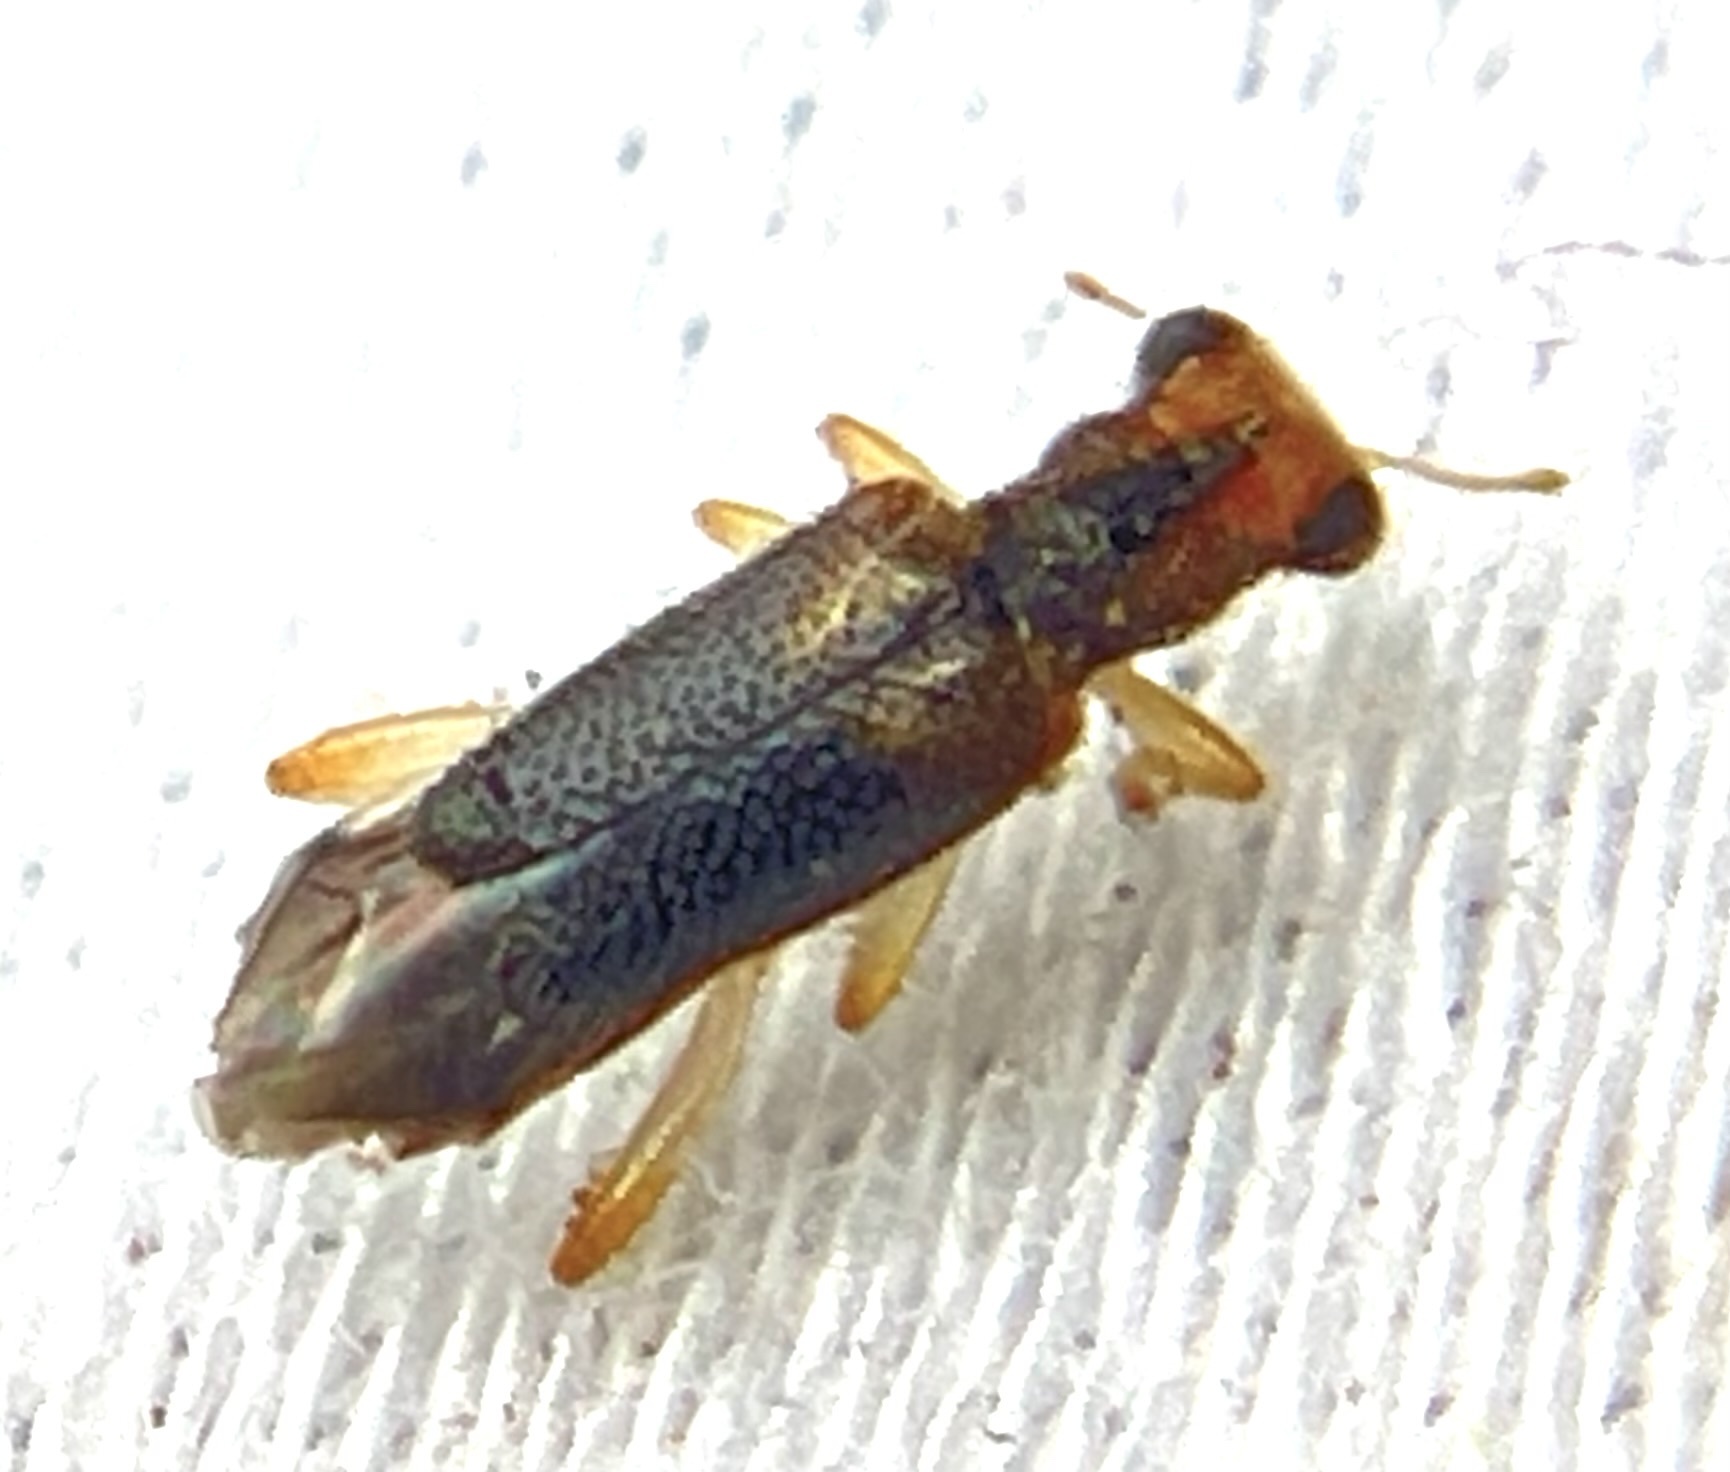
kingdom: Animalia
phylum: Arthropoda
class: Insecta
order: Coleoptera
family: Cleridae
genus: Phyllobaenus
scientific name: Phyllobaenus verticalis
